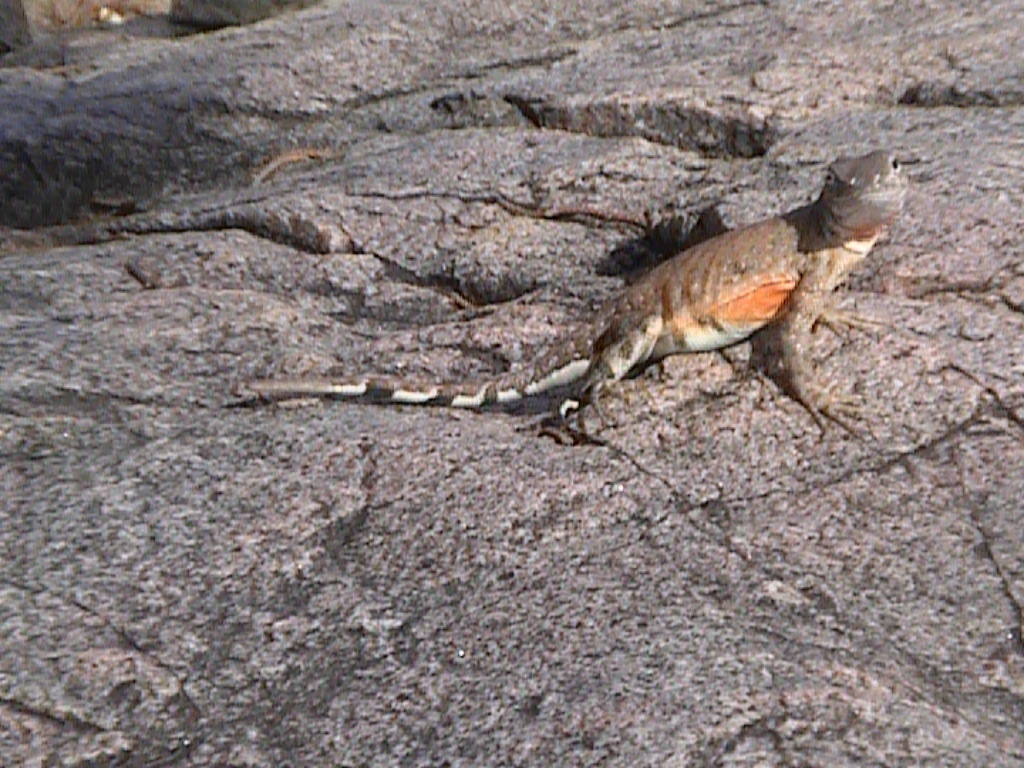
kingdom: Animalia
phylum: Chordata
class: Squamata
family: Phrynosomatidae
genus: Cophosaurus
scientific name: Cophosaurus texanus
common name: Greater earless lizard
